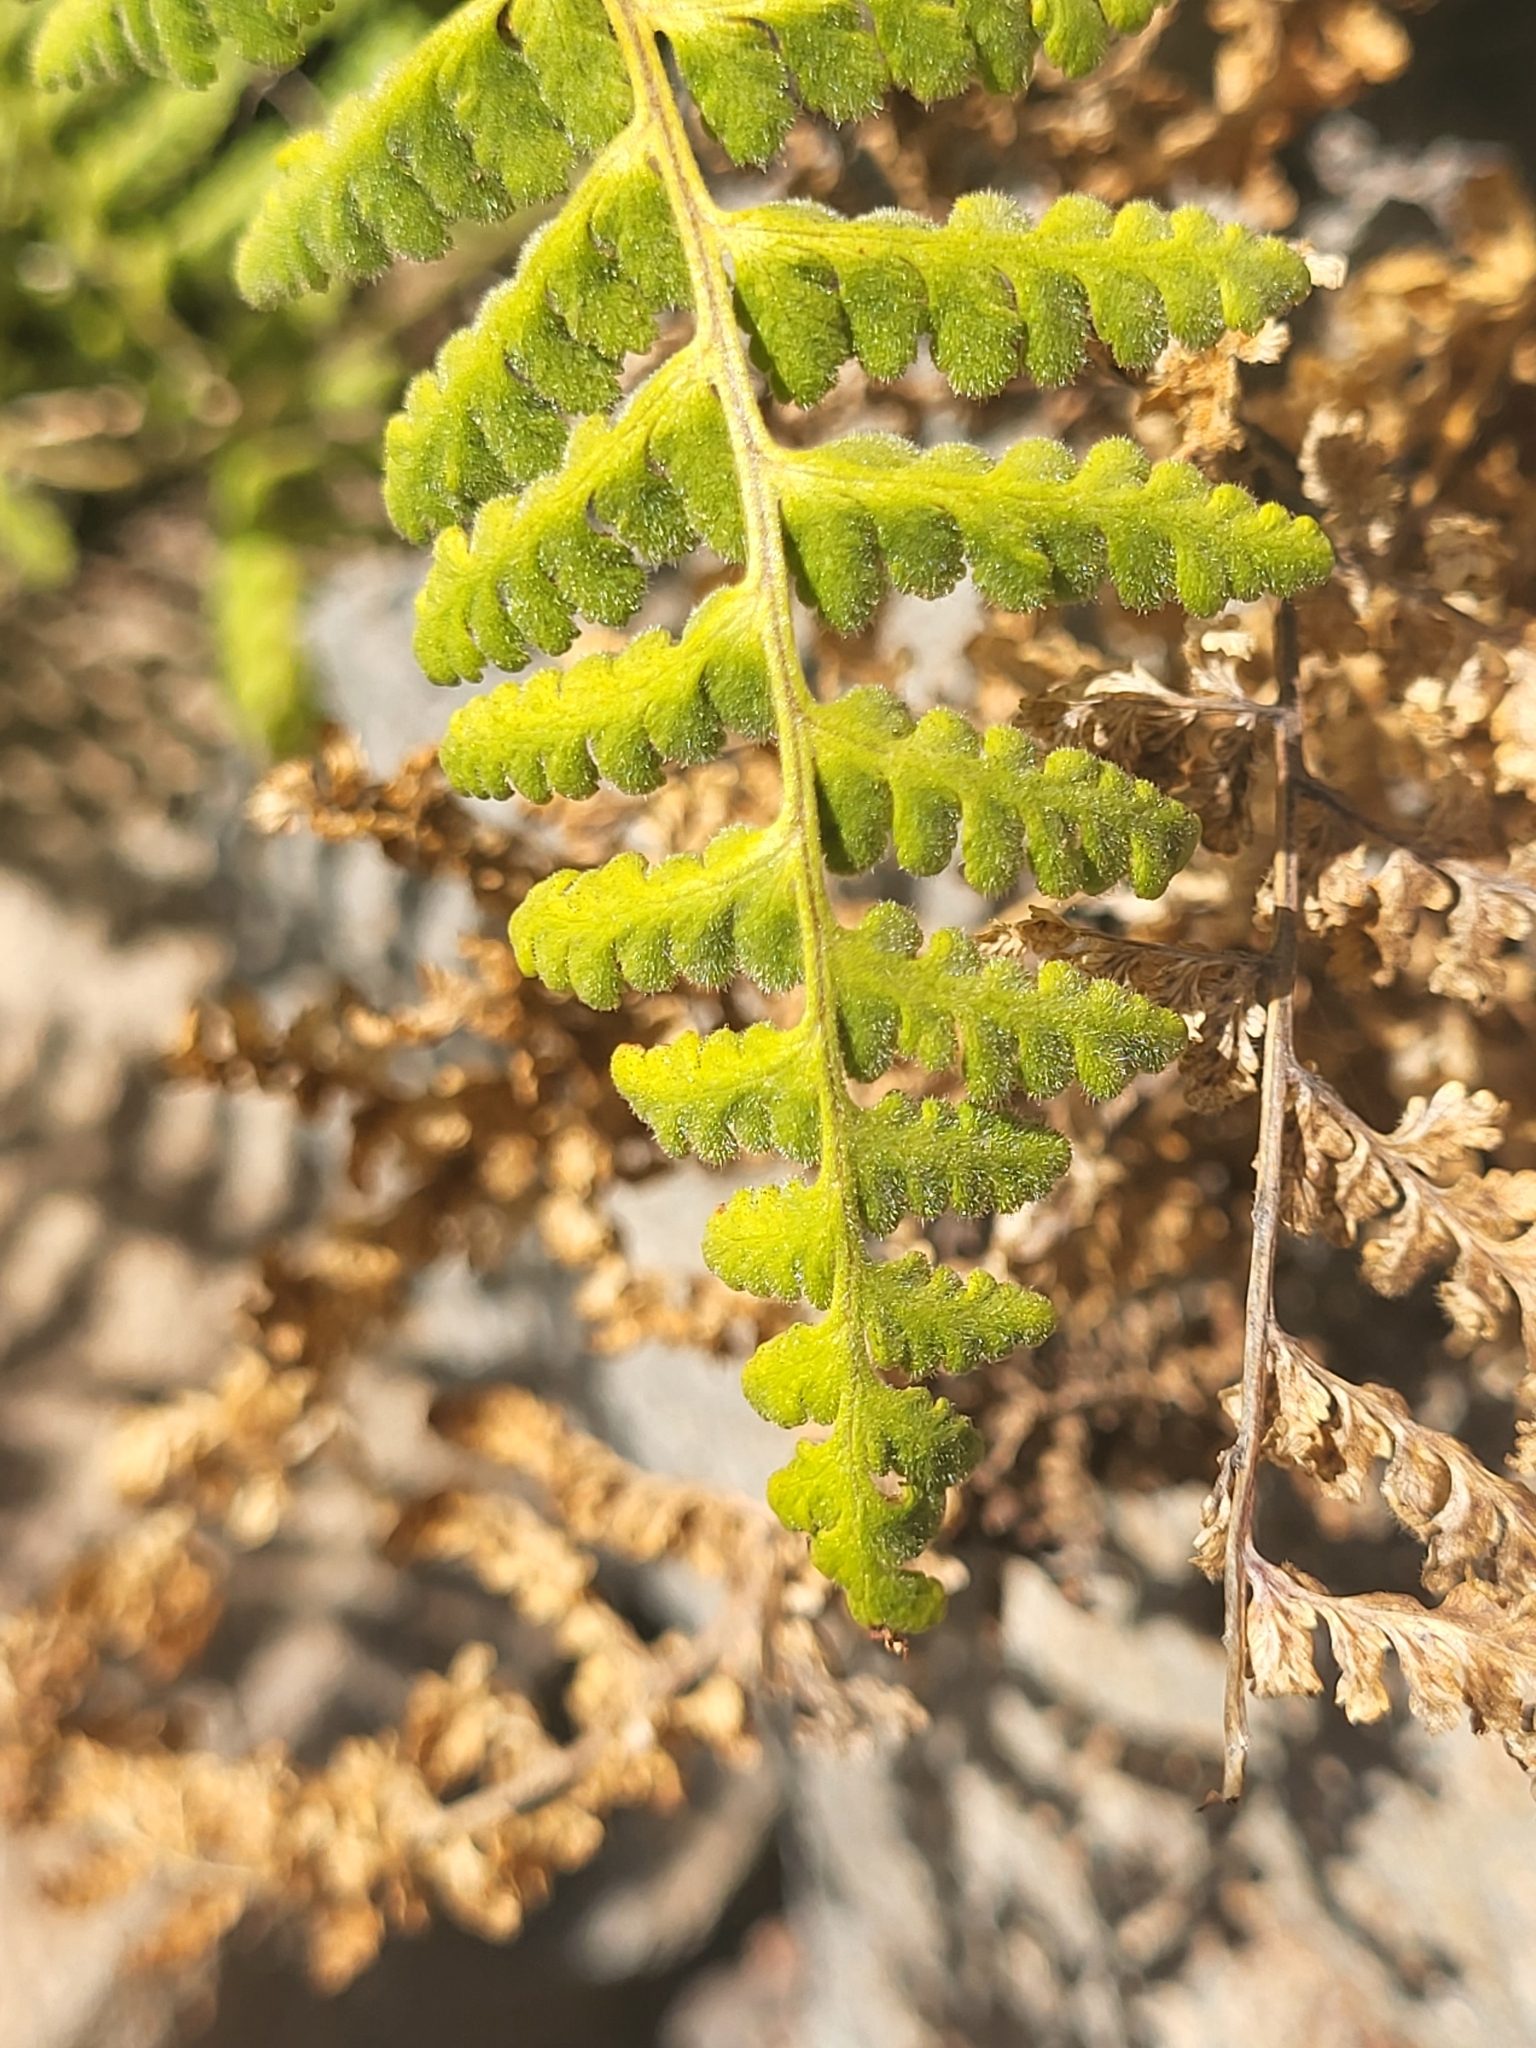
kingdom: Plantae
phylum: Tracheophyta
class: Polypodiopsida
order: Polypodiales
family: Hypodematiaceae
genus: Hypodematium
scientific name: Hypodematium chrysolepis
